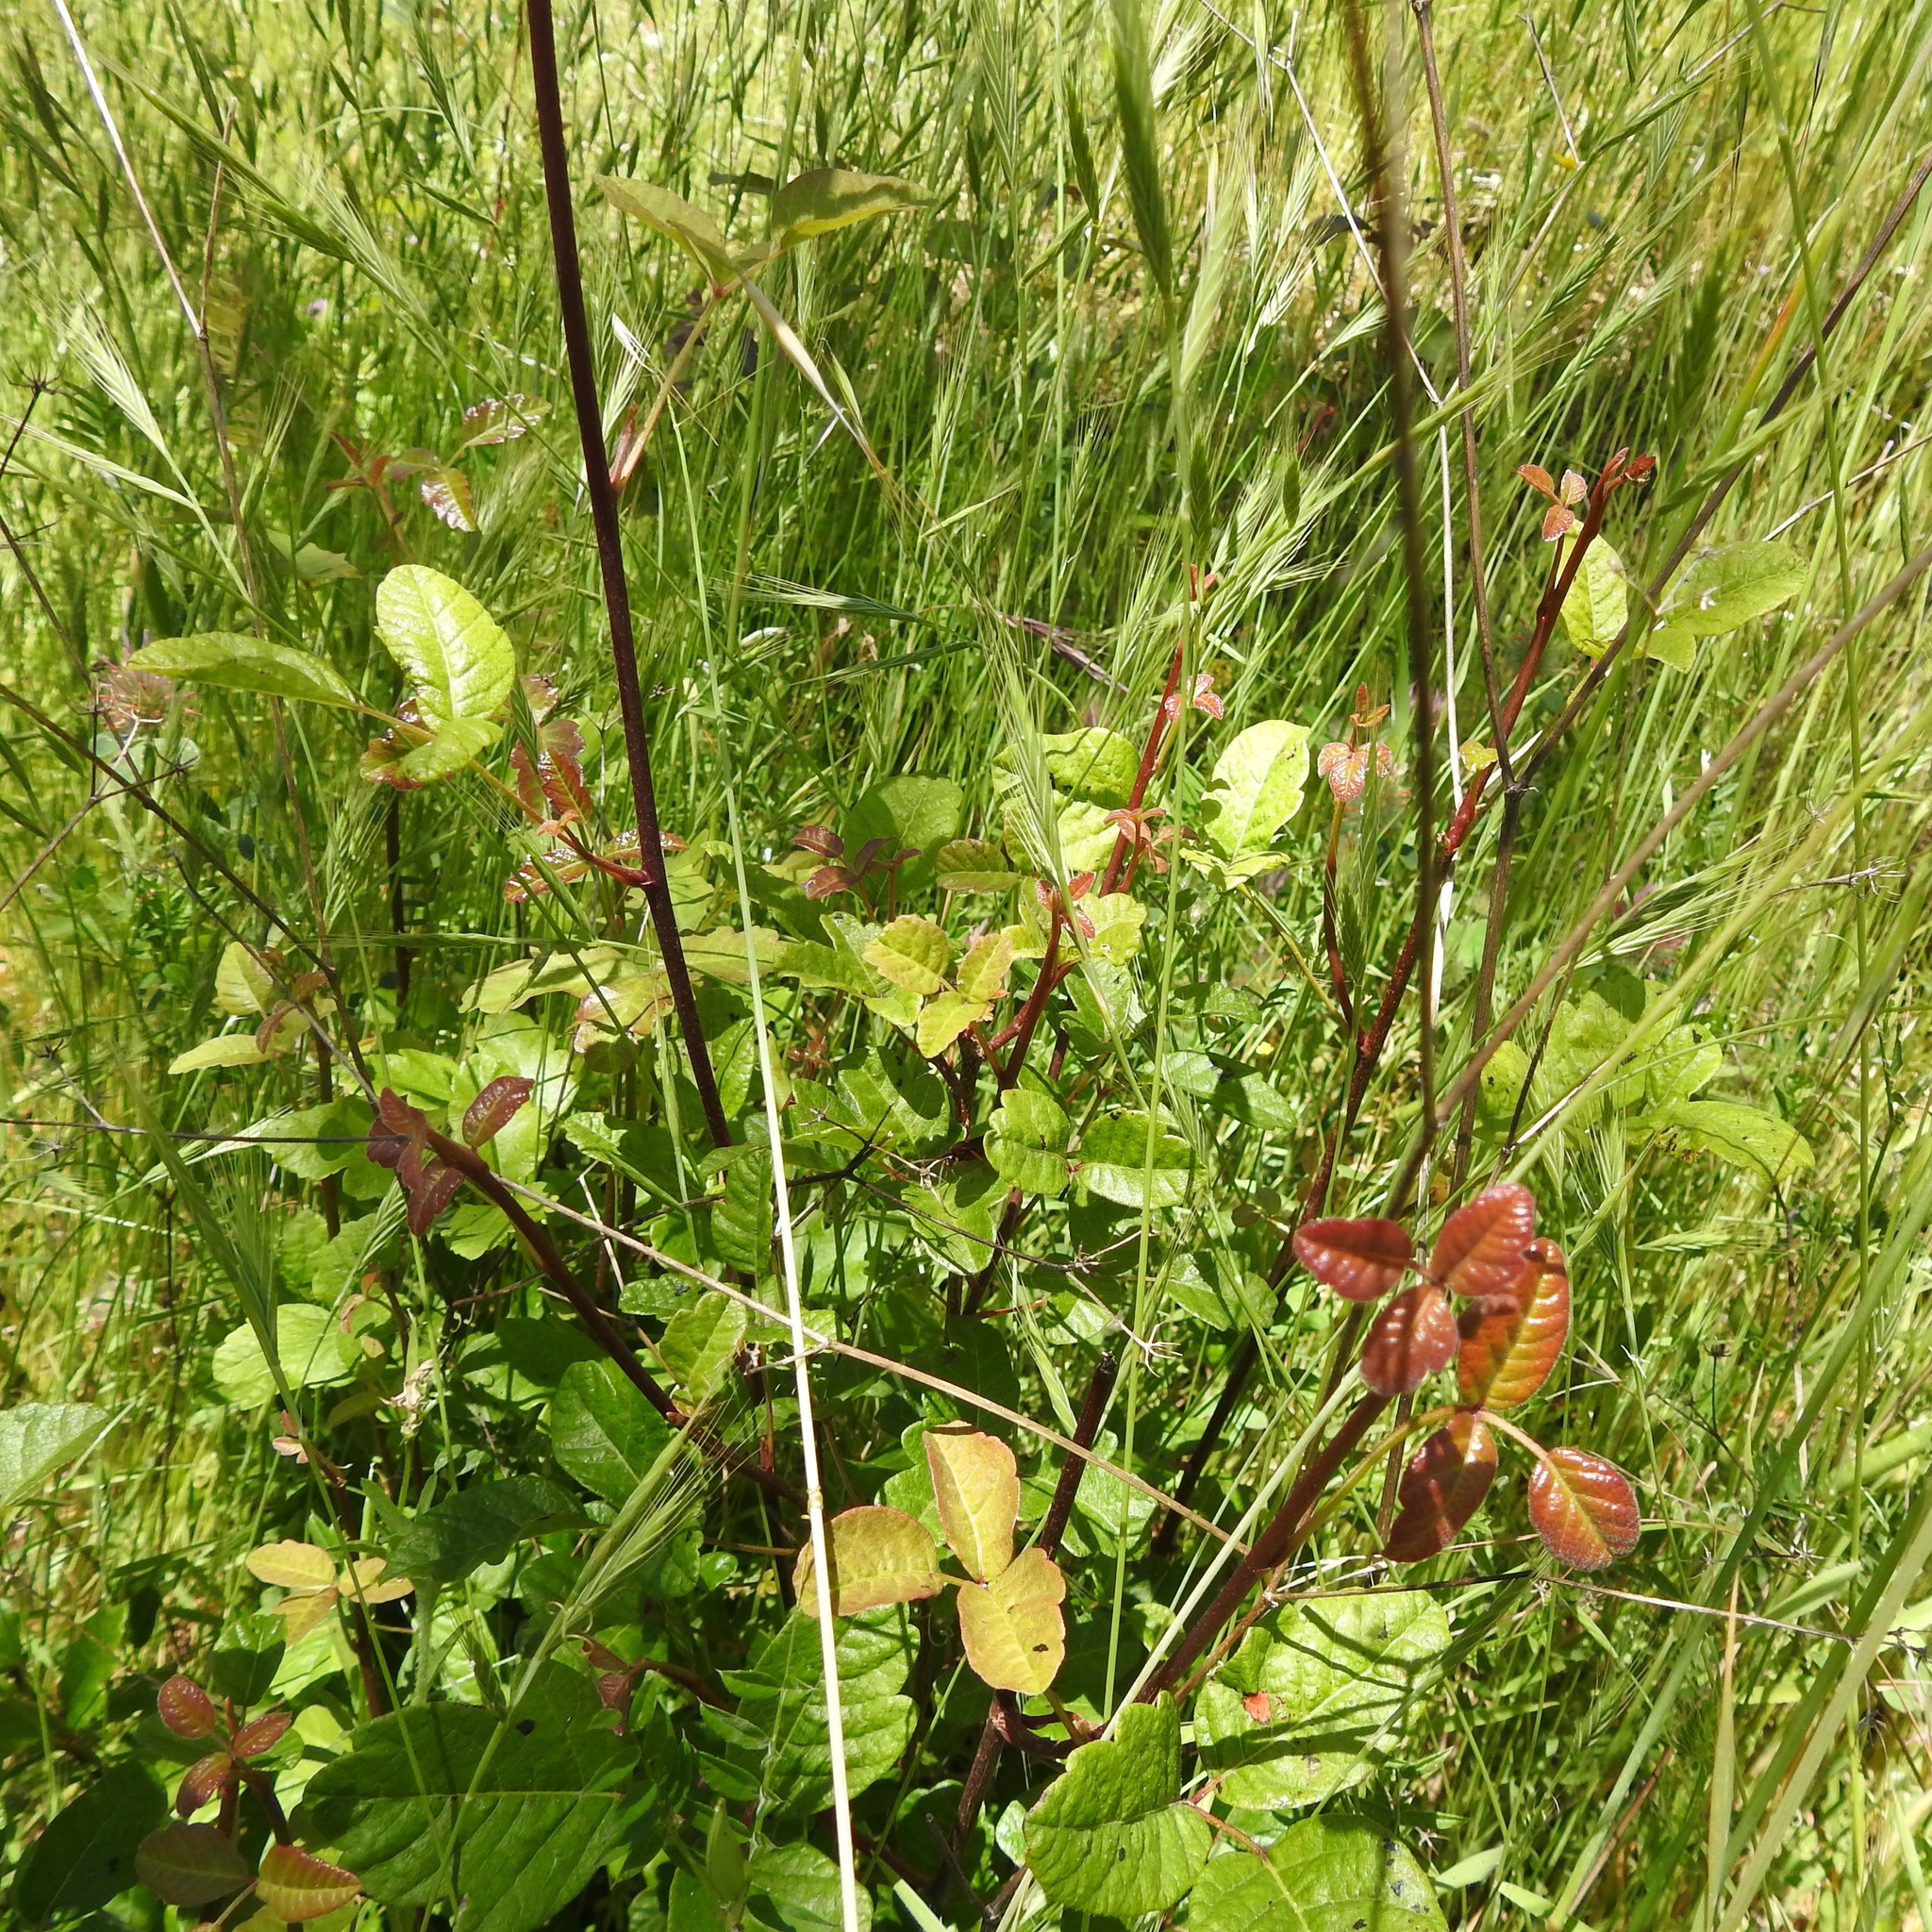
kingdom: Plantae
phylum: Tracheophyta
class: Magnoliopsida
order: Sapindales
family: Anacardiaceae
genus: Toxicodendron
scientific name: Toxicodendron diversilobum
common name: Pacific poison-oak
